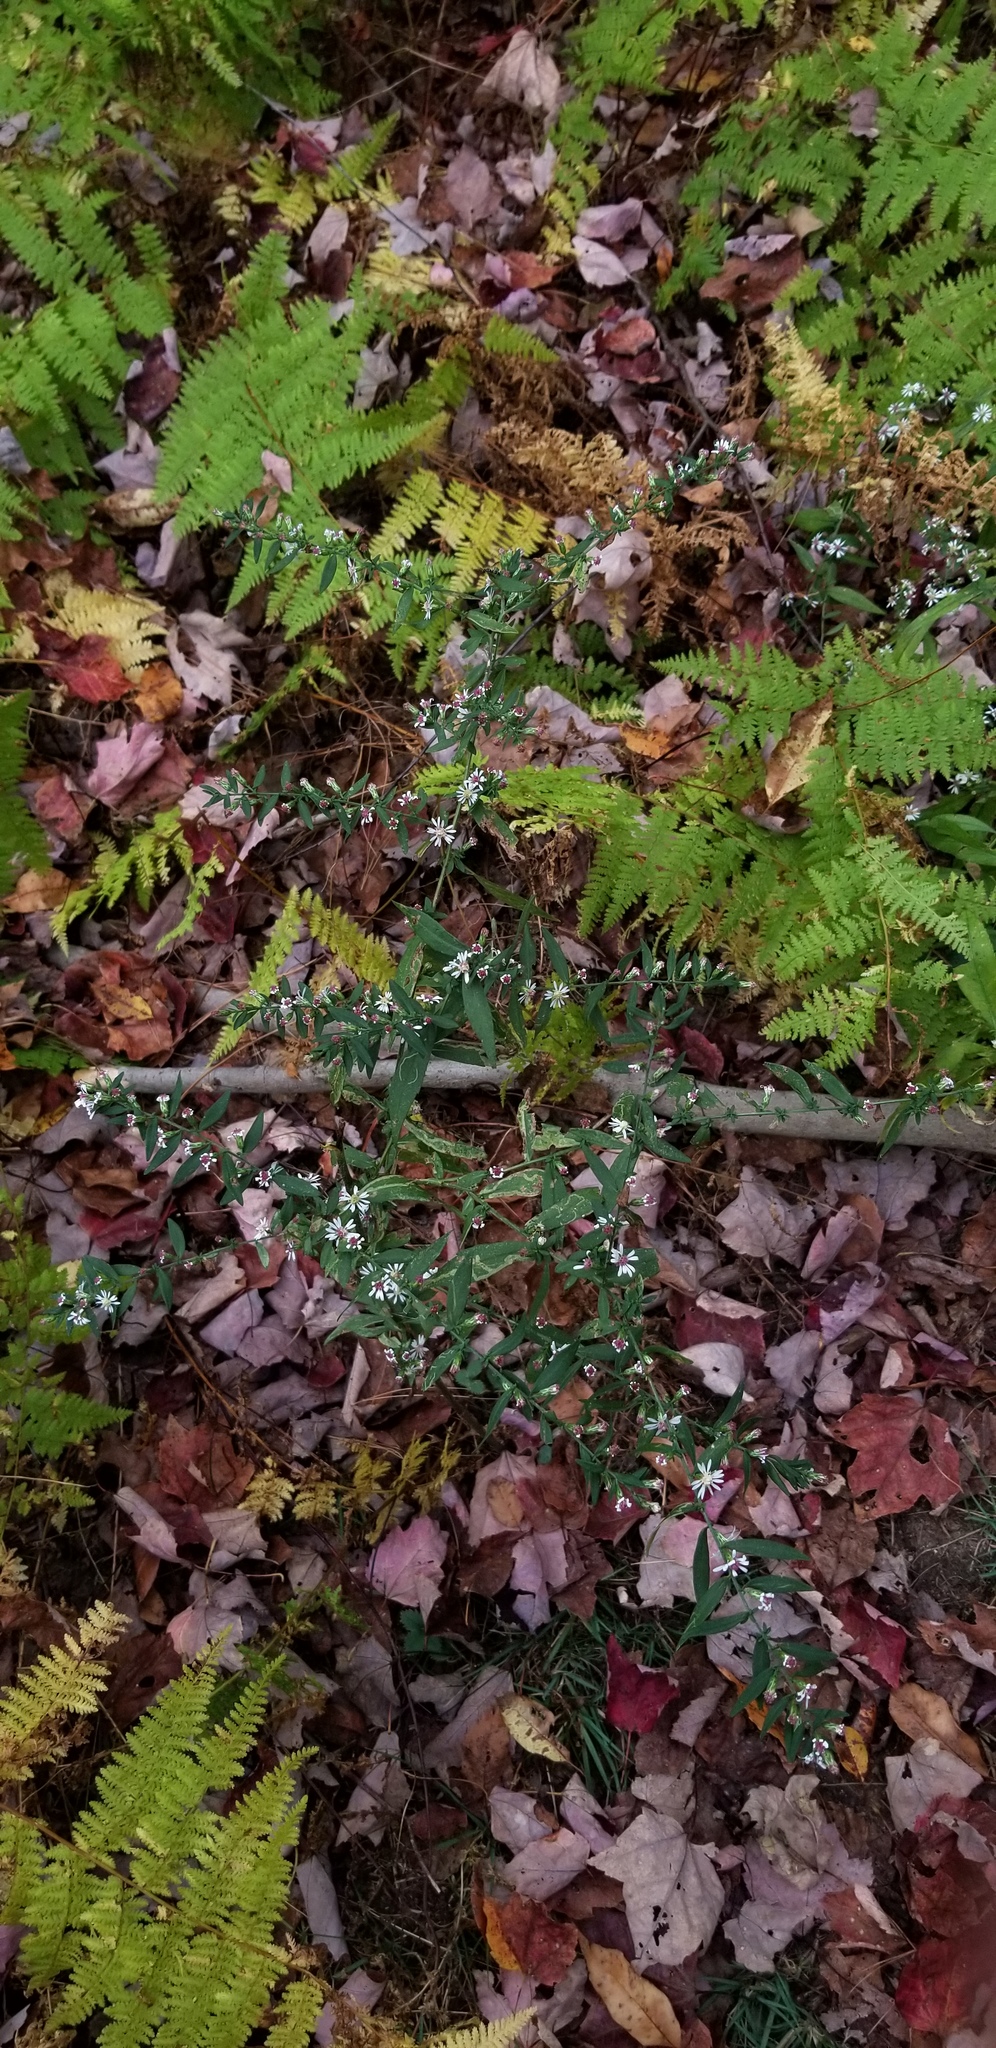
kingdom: Plantae
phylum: Tracheophyta
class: Magnoliopsida
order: Asterales
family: Asteraceae
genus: Symphyotrichum
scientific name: Symphyotrichum lateriflorum
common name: Calico aster
